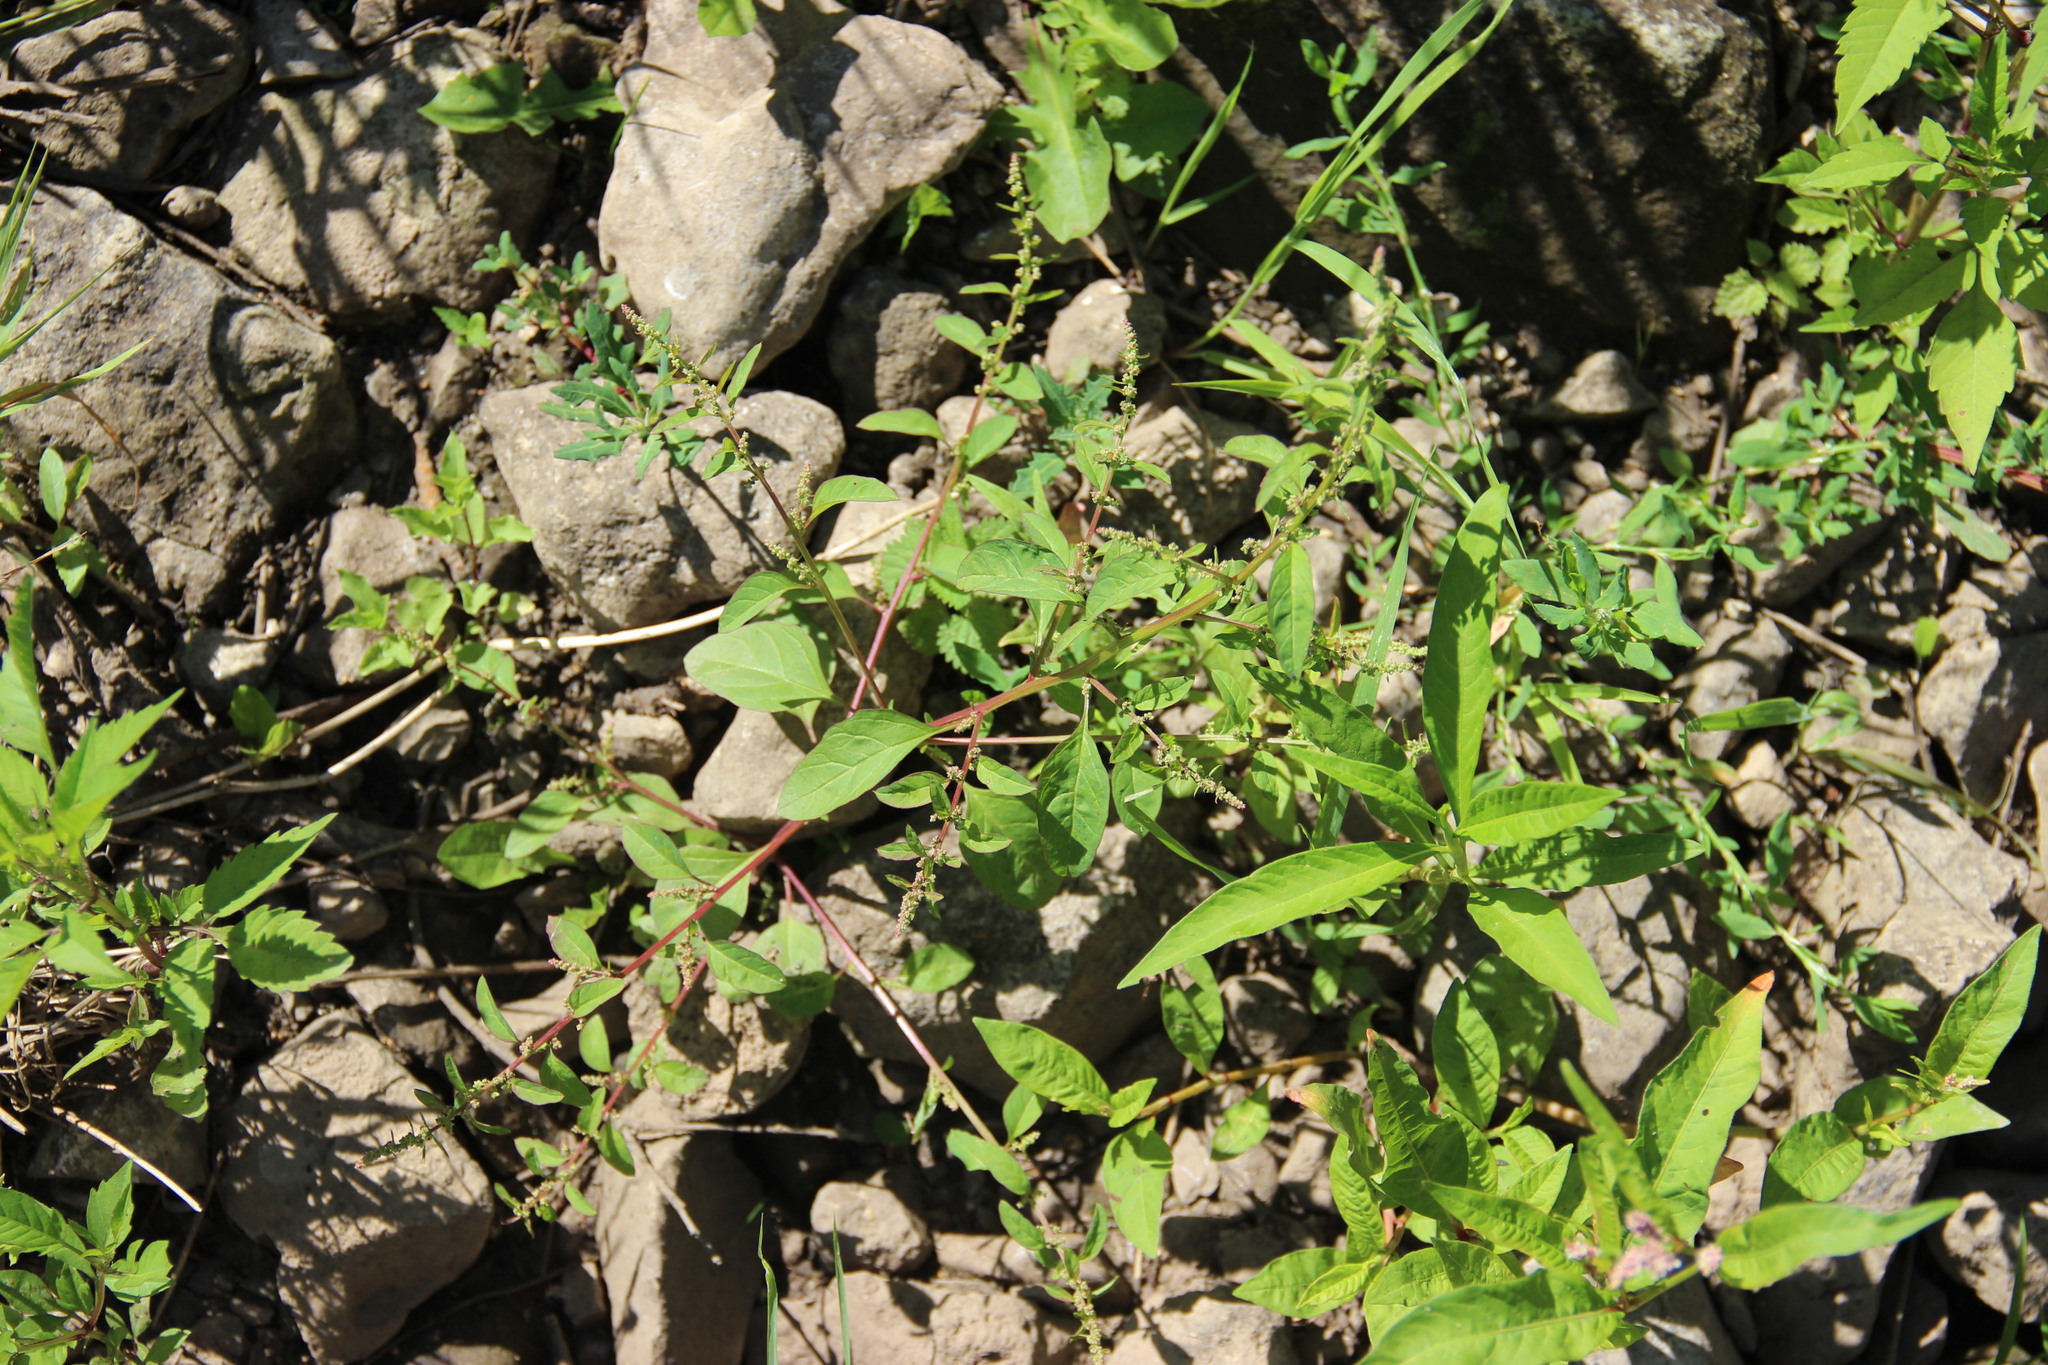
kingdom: Plantae
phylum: Tracheophyta
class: Magnoliopsida
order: Caryophyllales
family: Amaranthaceae
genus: Lipandra
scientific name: Lipandra polysperma
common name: Many-seed goosefoot
